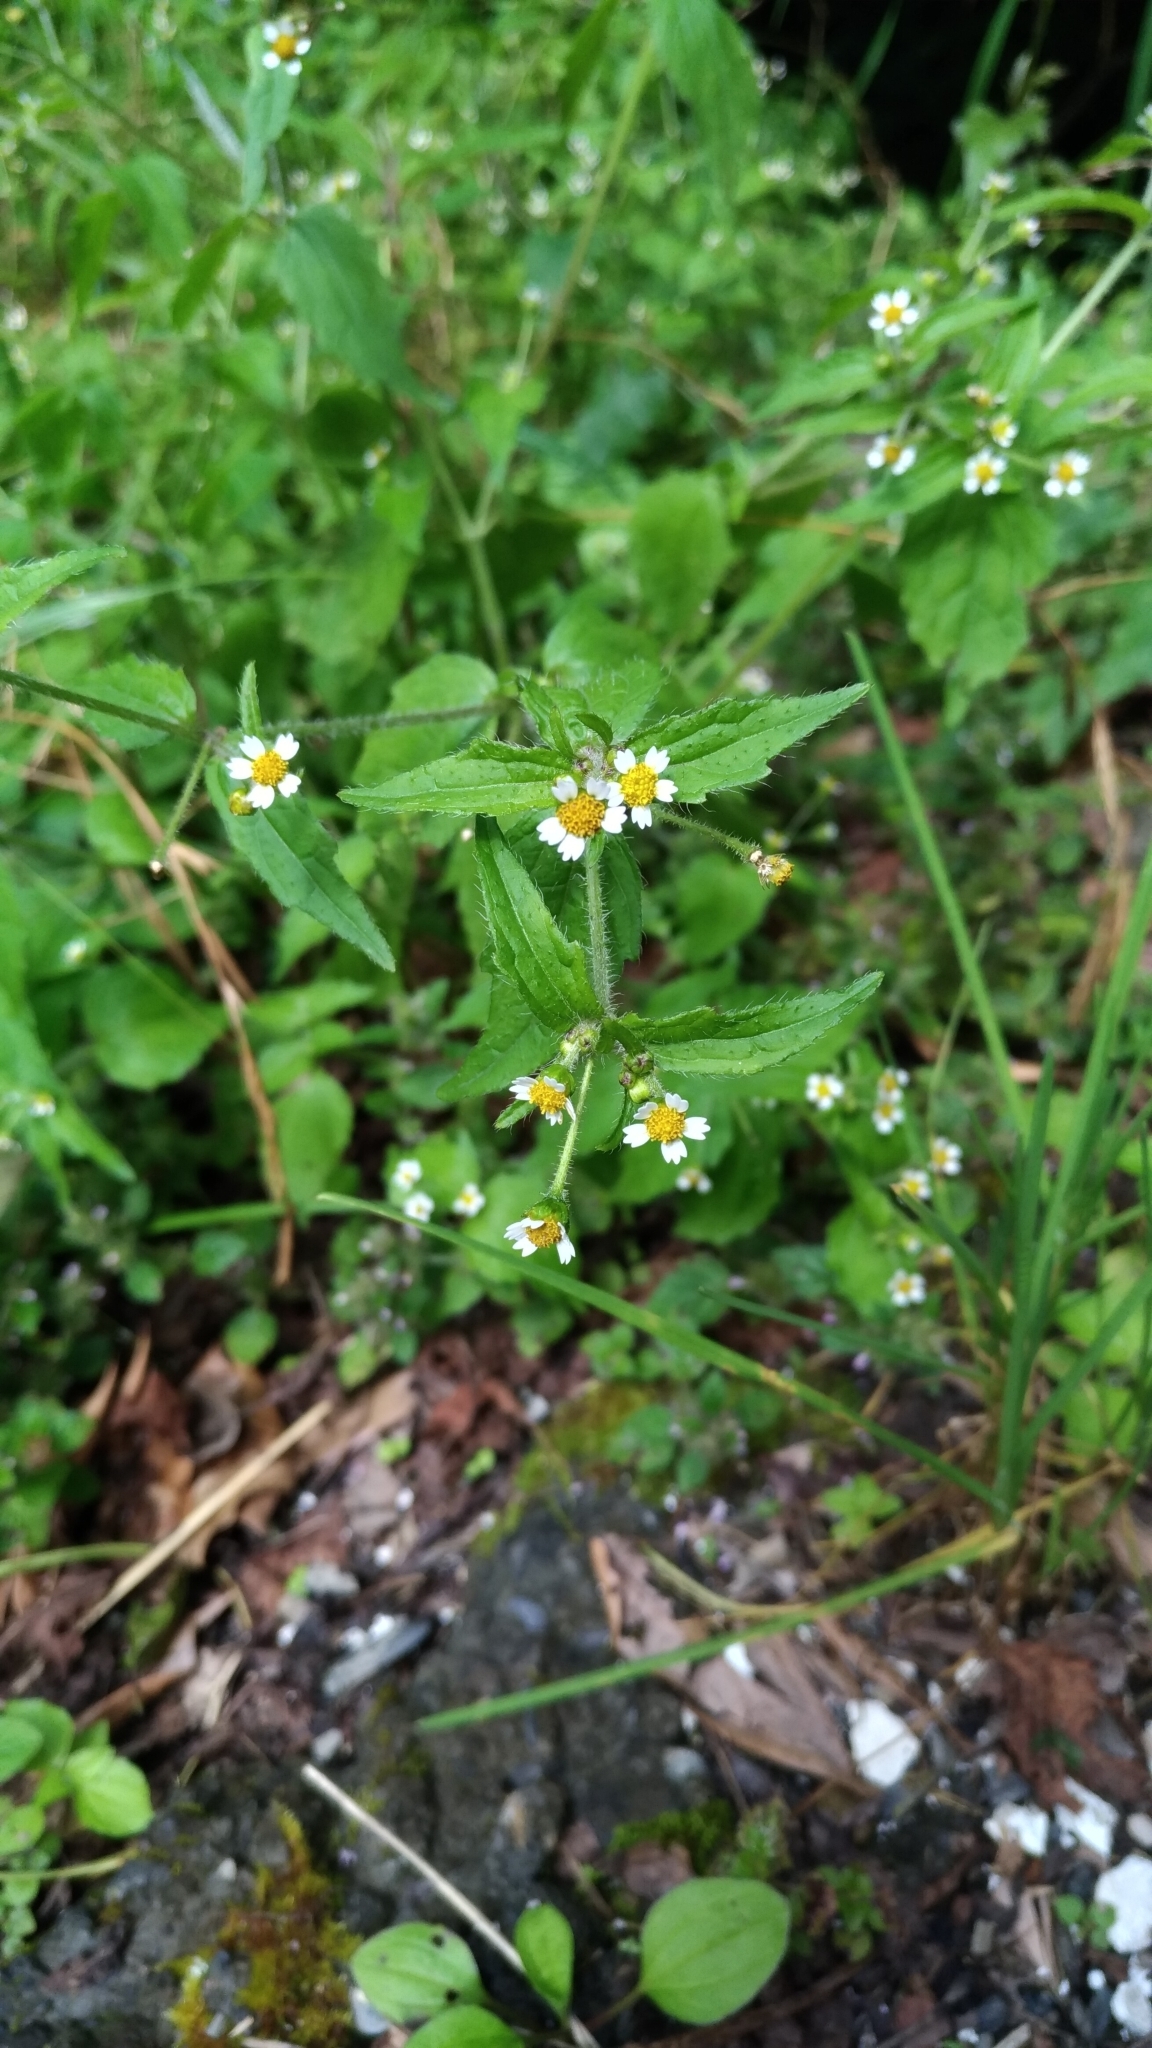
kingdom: Plantae
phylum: Tracheophyta
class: Magnoliopsida
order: Asterales
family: Asteraceae
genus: Galinsoga
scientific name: Galinsoga quadriradiata
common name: Shaggy soldier
